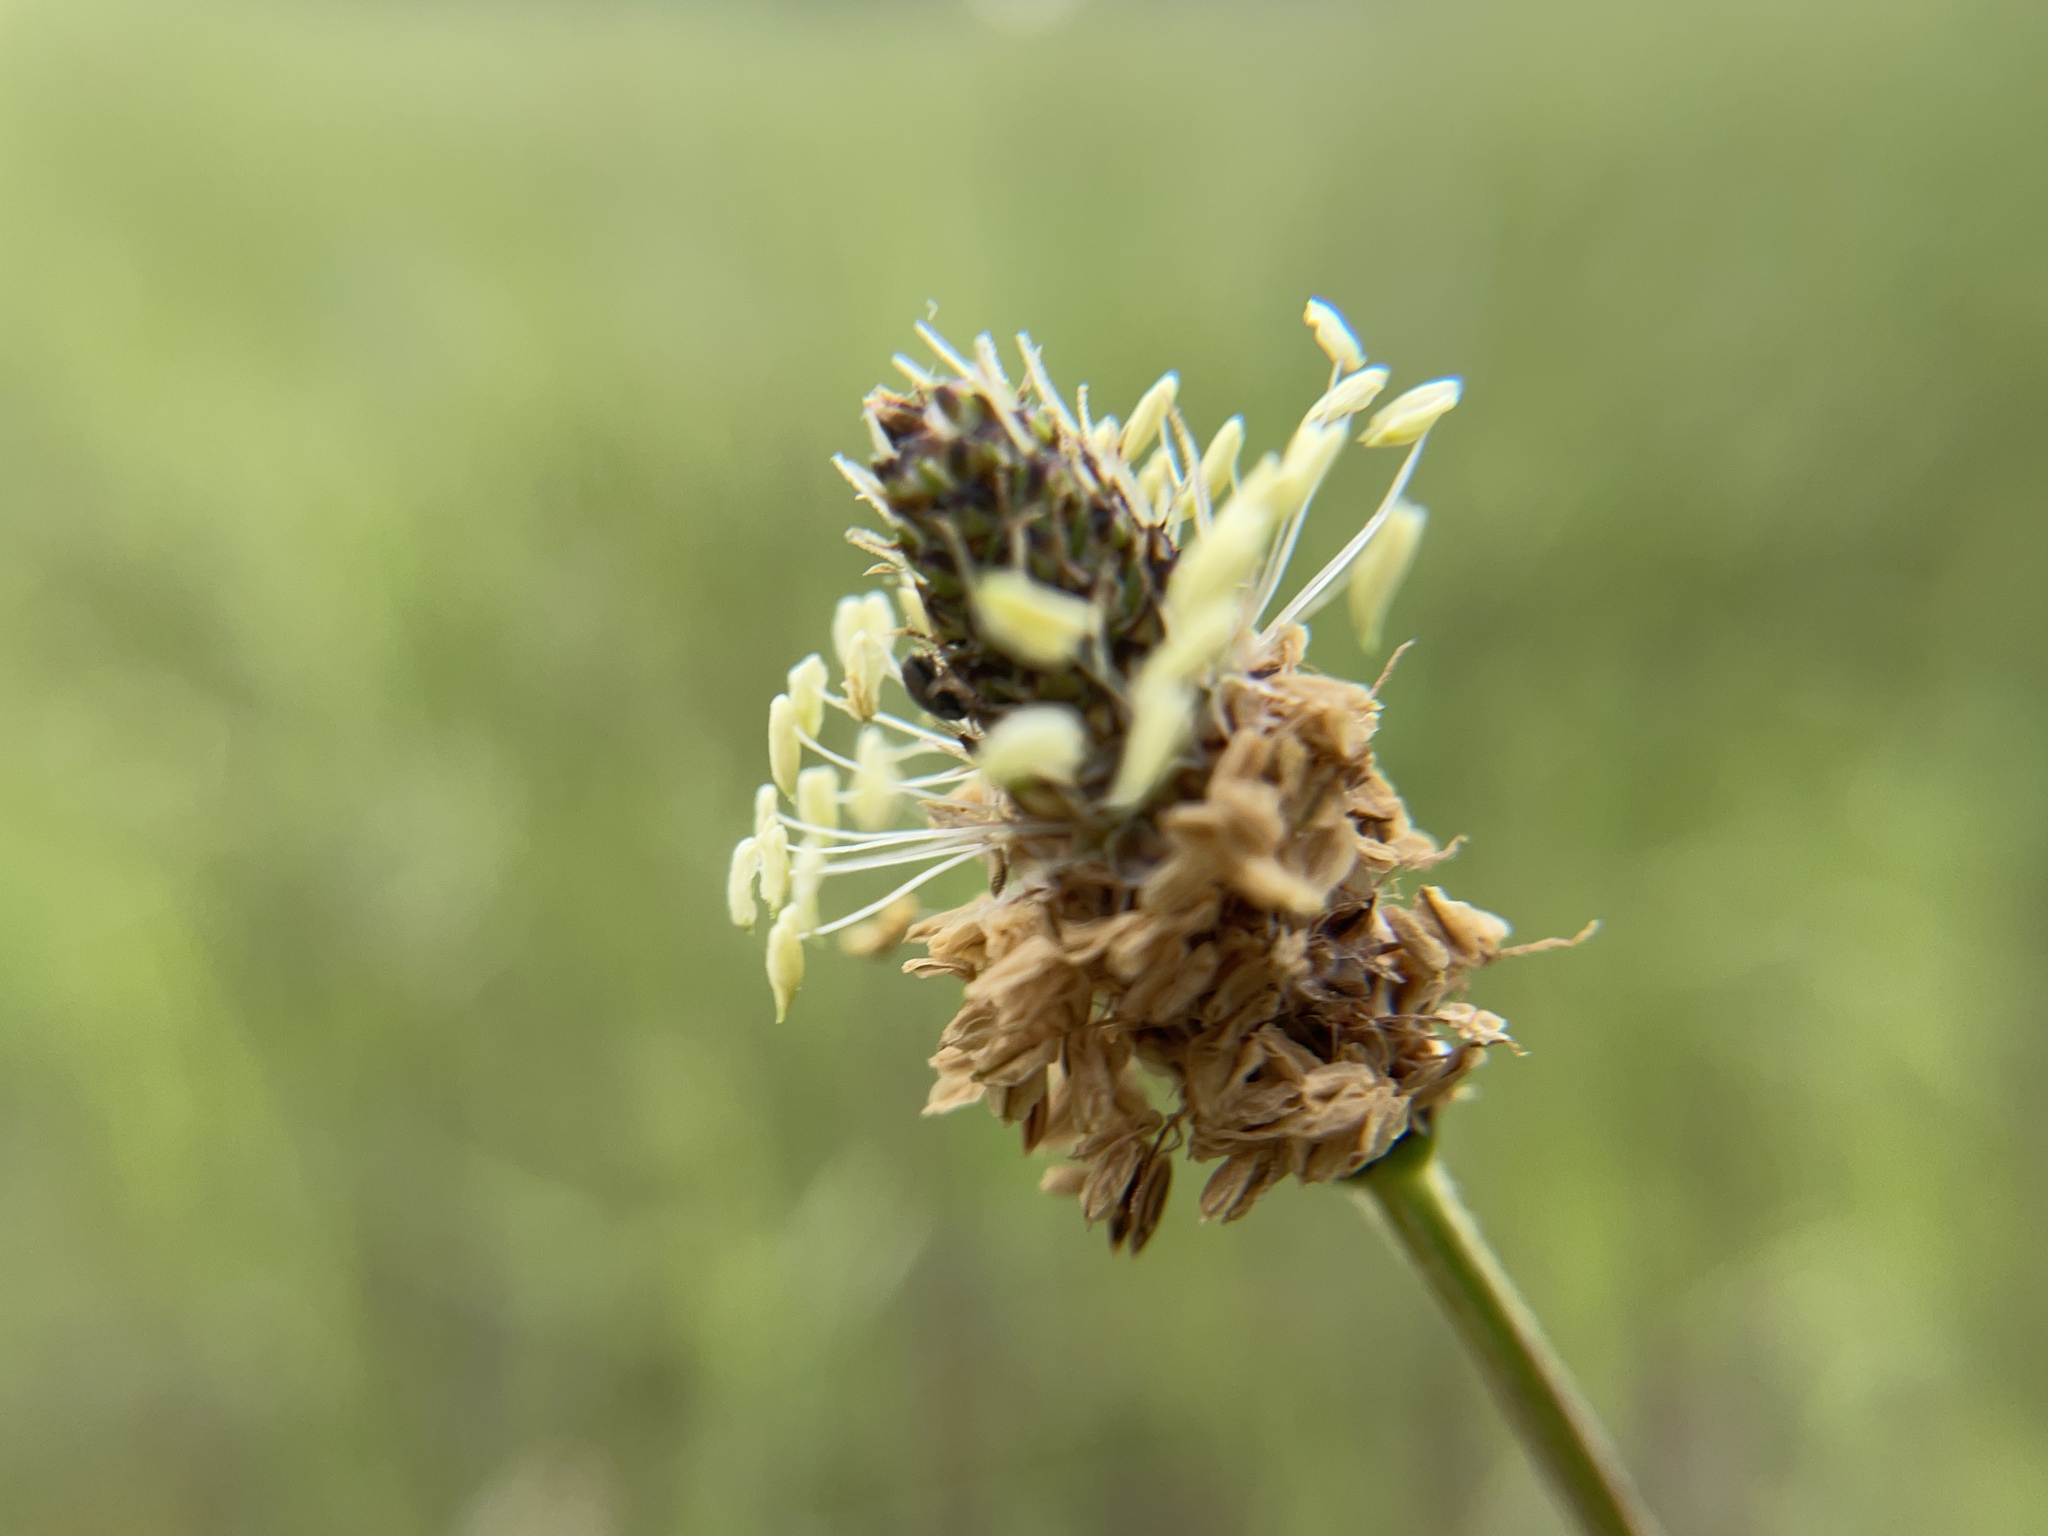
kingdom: Plantae
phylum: Tracheophyta
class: Magnoliopsida
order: Lamiales
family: Plantaginaceae
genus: Plantago
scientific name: Plantago lanceolata
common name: Ribwort plantain
